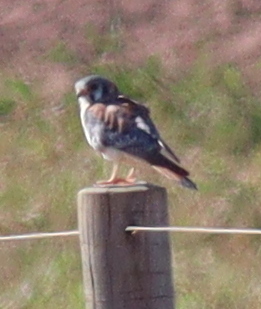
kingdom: Animalia
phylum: Chordata
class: Aves
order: Falconiformes
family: Falconidae
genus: Falco
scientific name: Falco sparverius
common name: American kestrel
